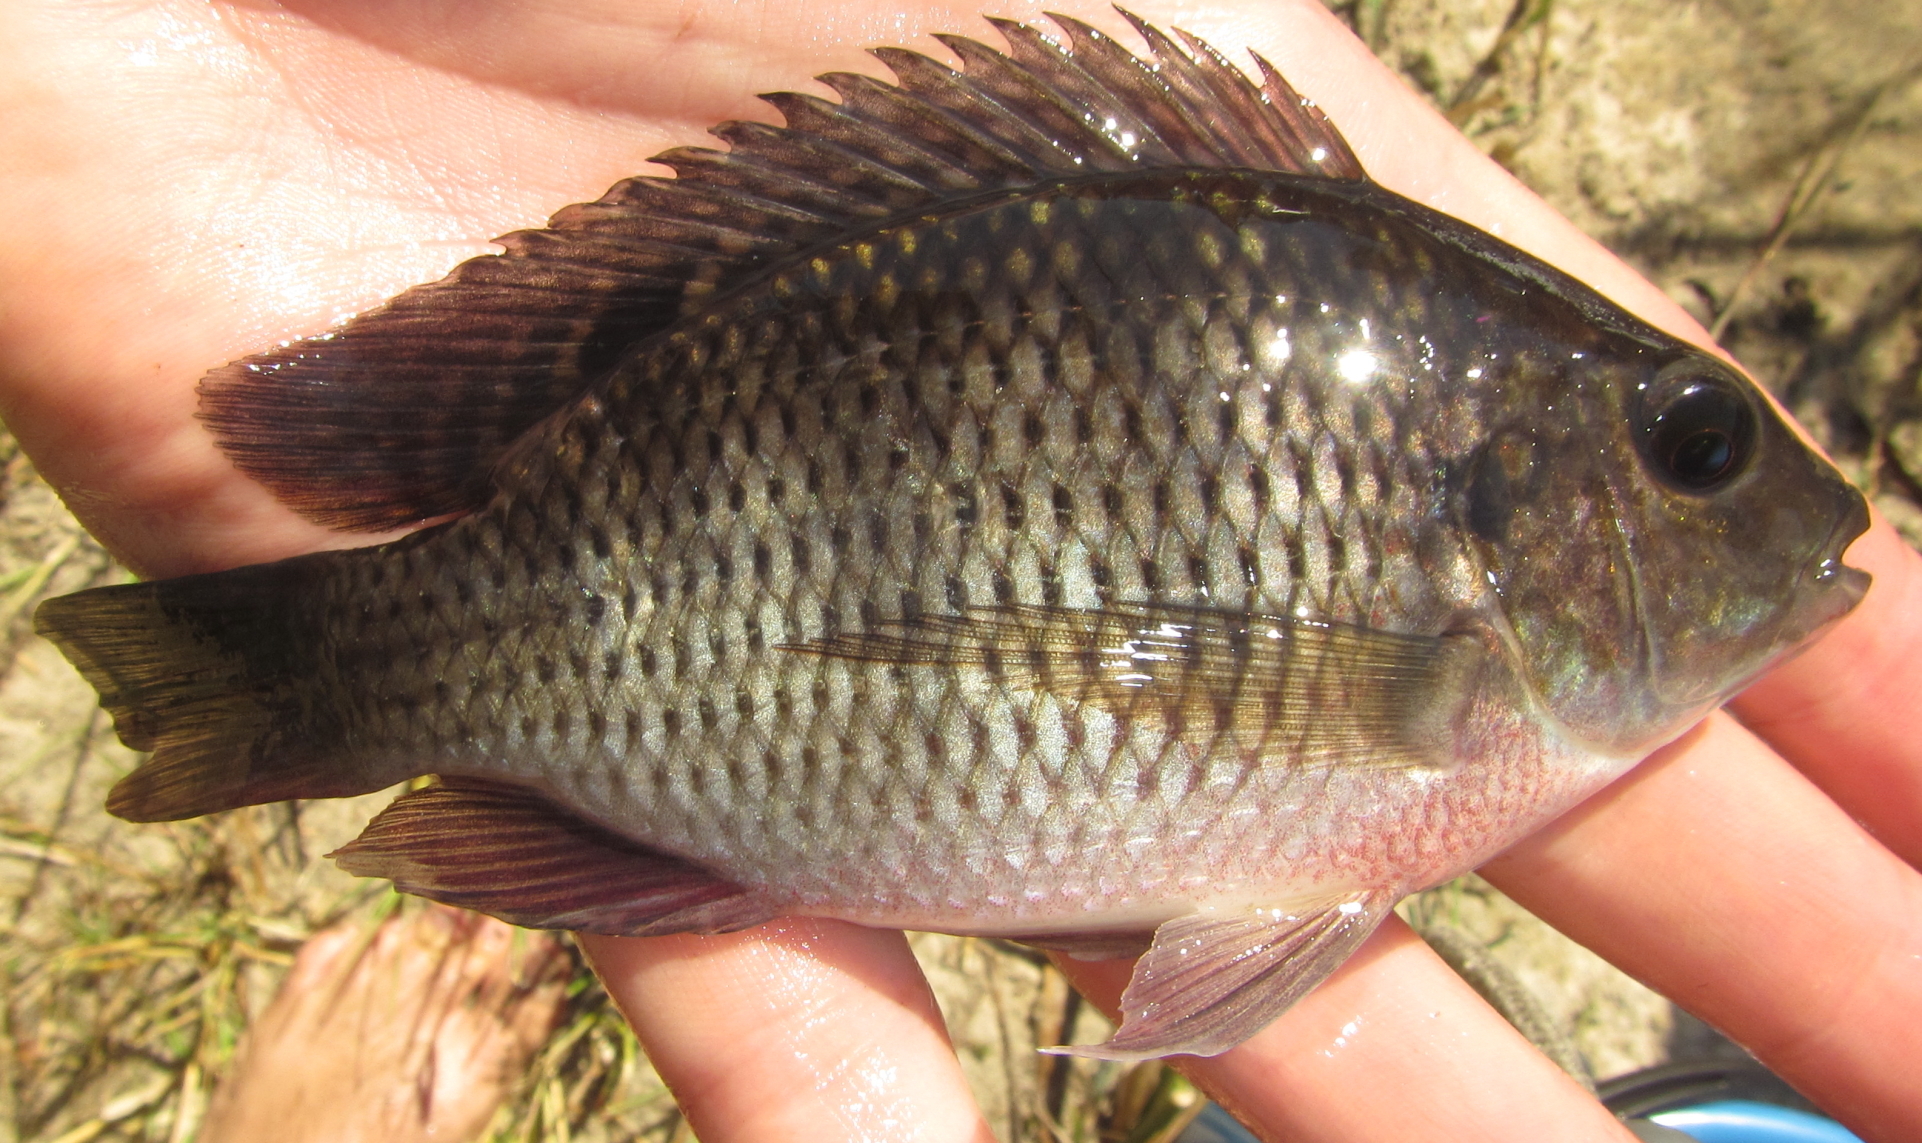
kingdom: Animalia
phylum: Chordata
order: Perciformes
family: Cichlidae
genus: Coptodon
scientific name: Coptodon rendalli
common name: Redbreast tilapia
